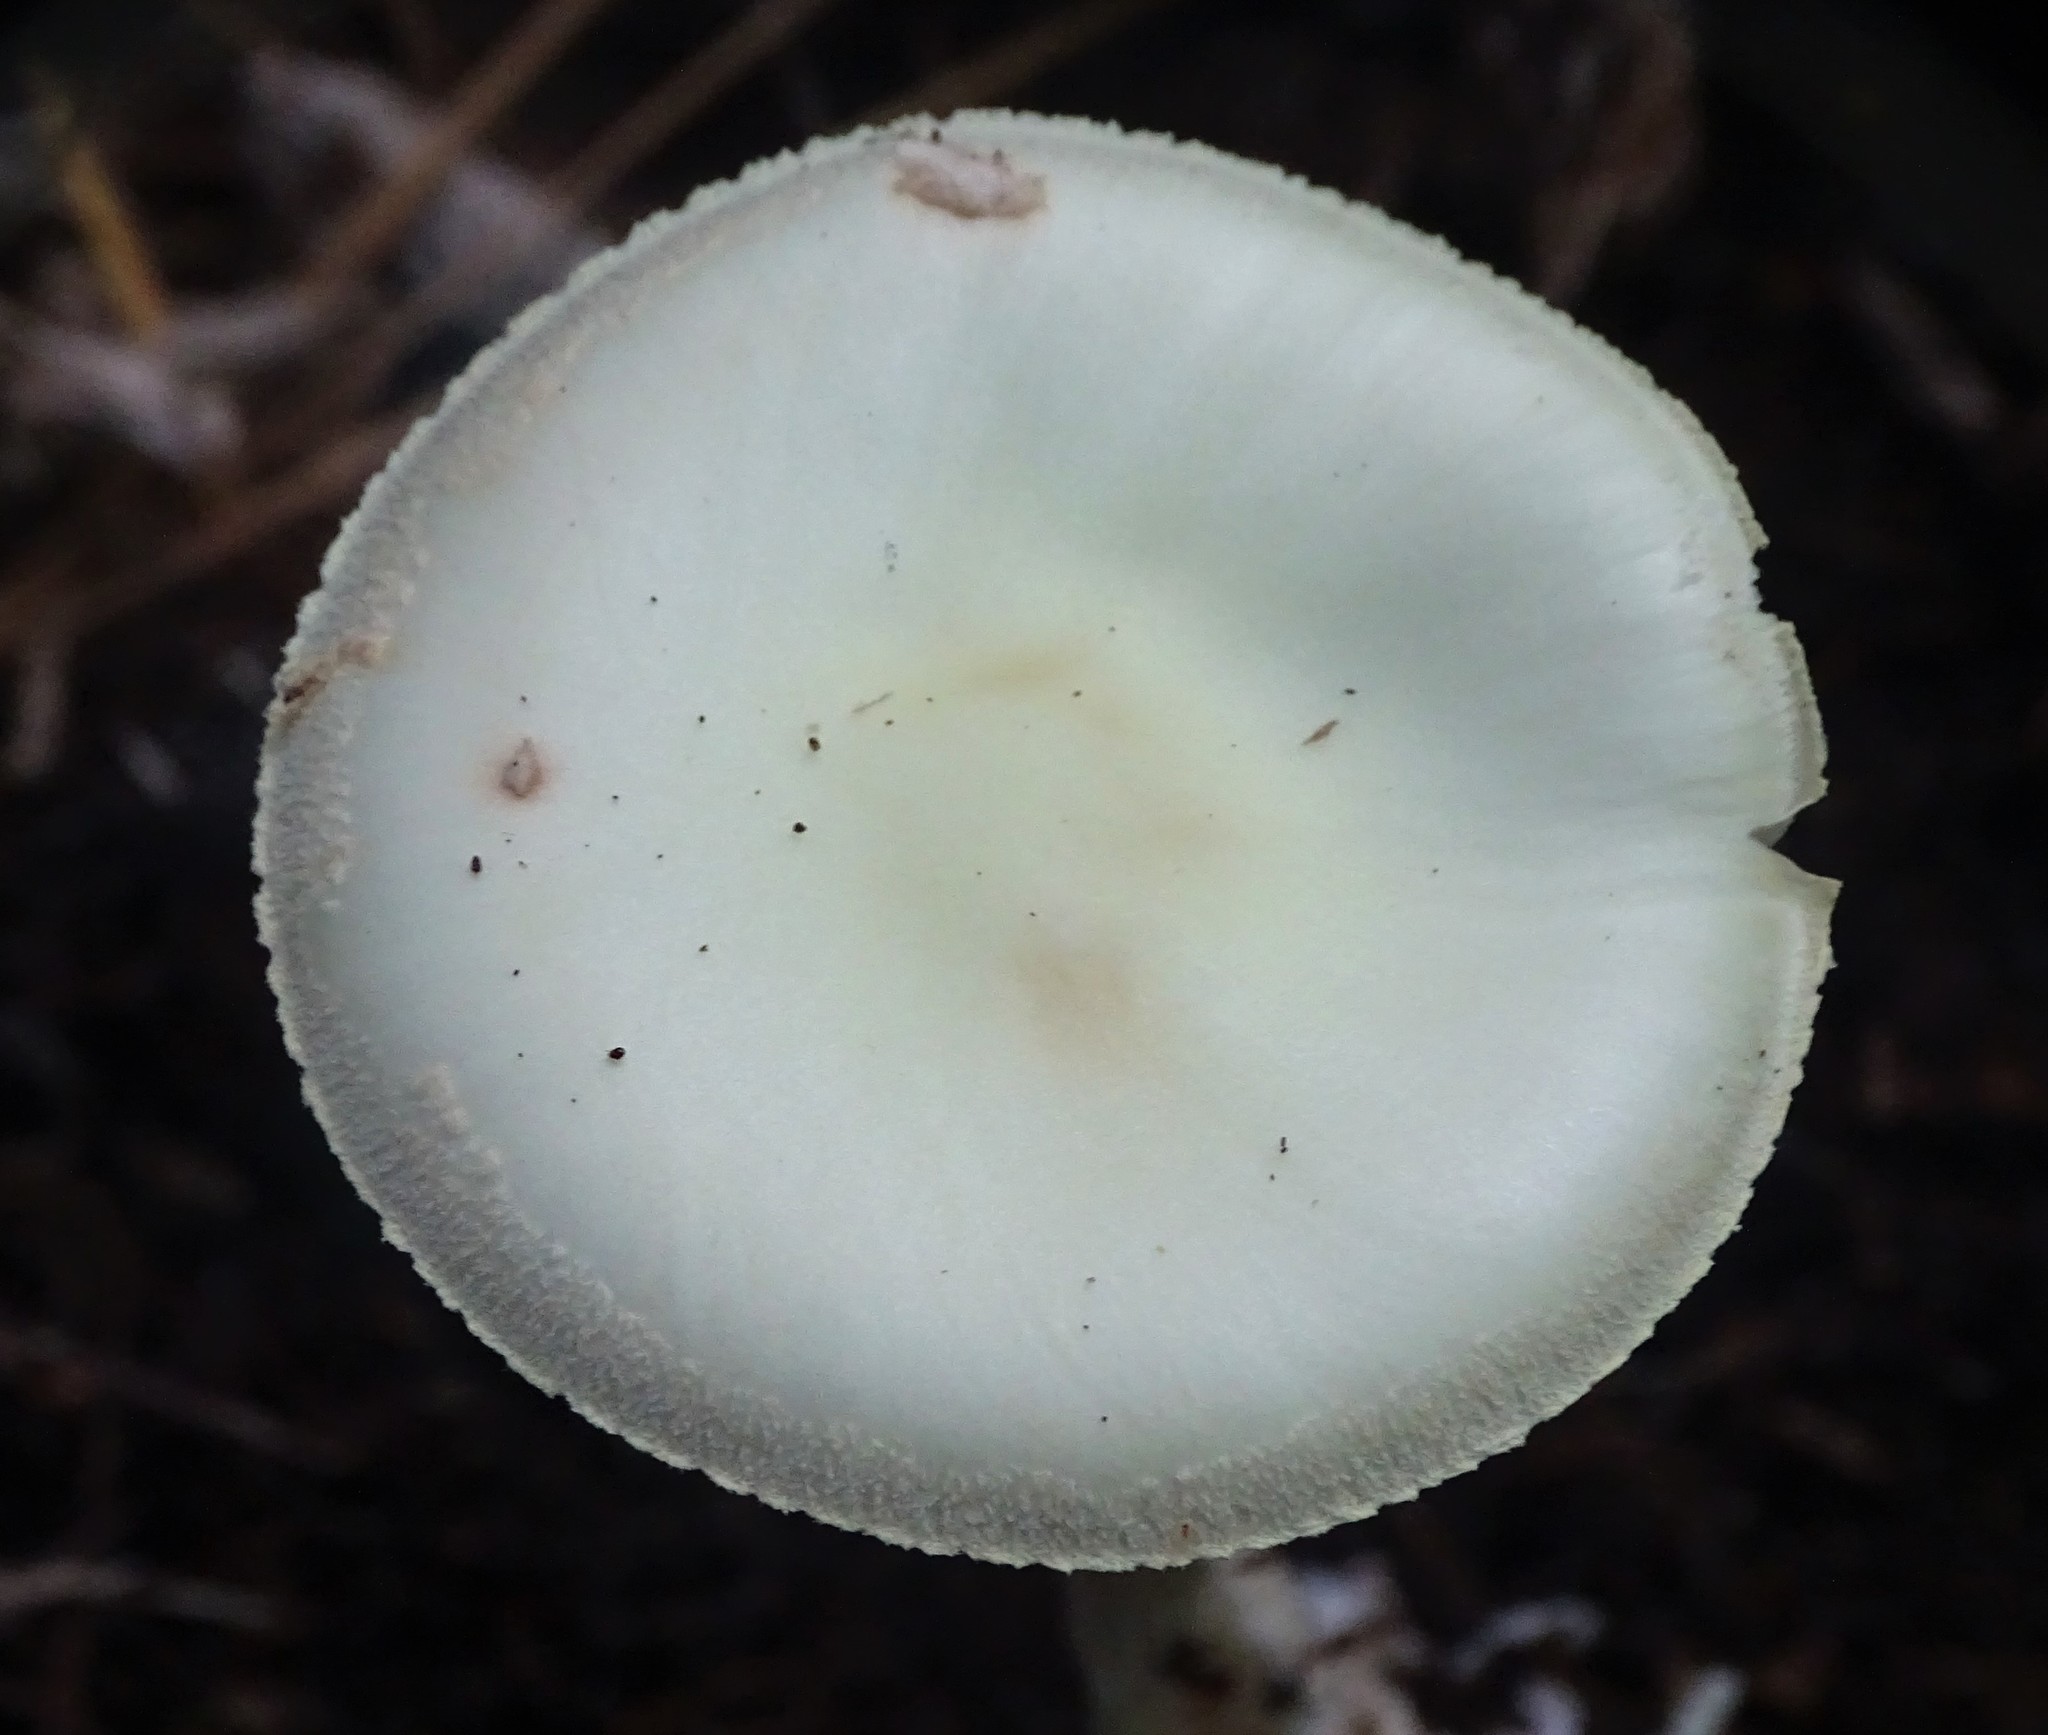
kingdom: Fungi
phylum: Basidiomycota
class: Agaricomycetes
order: Agaricales
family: Amanitaceae
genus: Amanita
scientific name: Amanita lavendula
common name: Coker's lavender staining amanita
